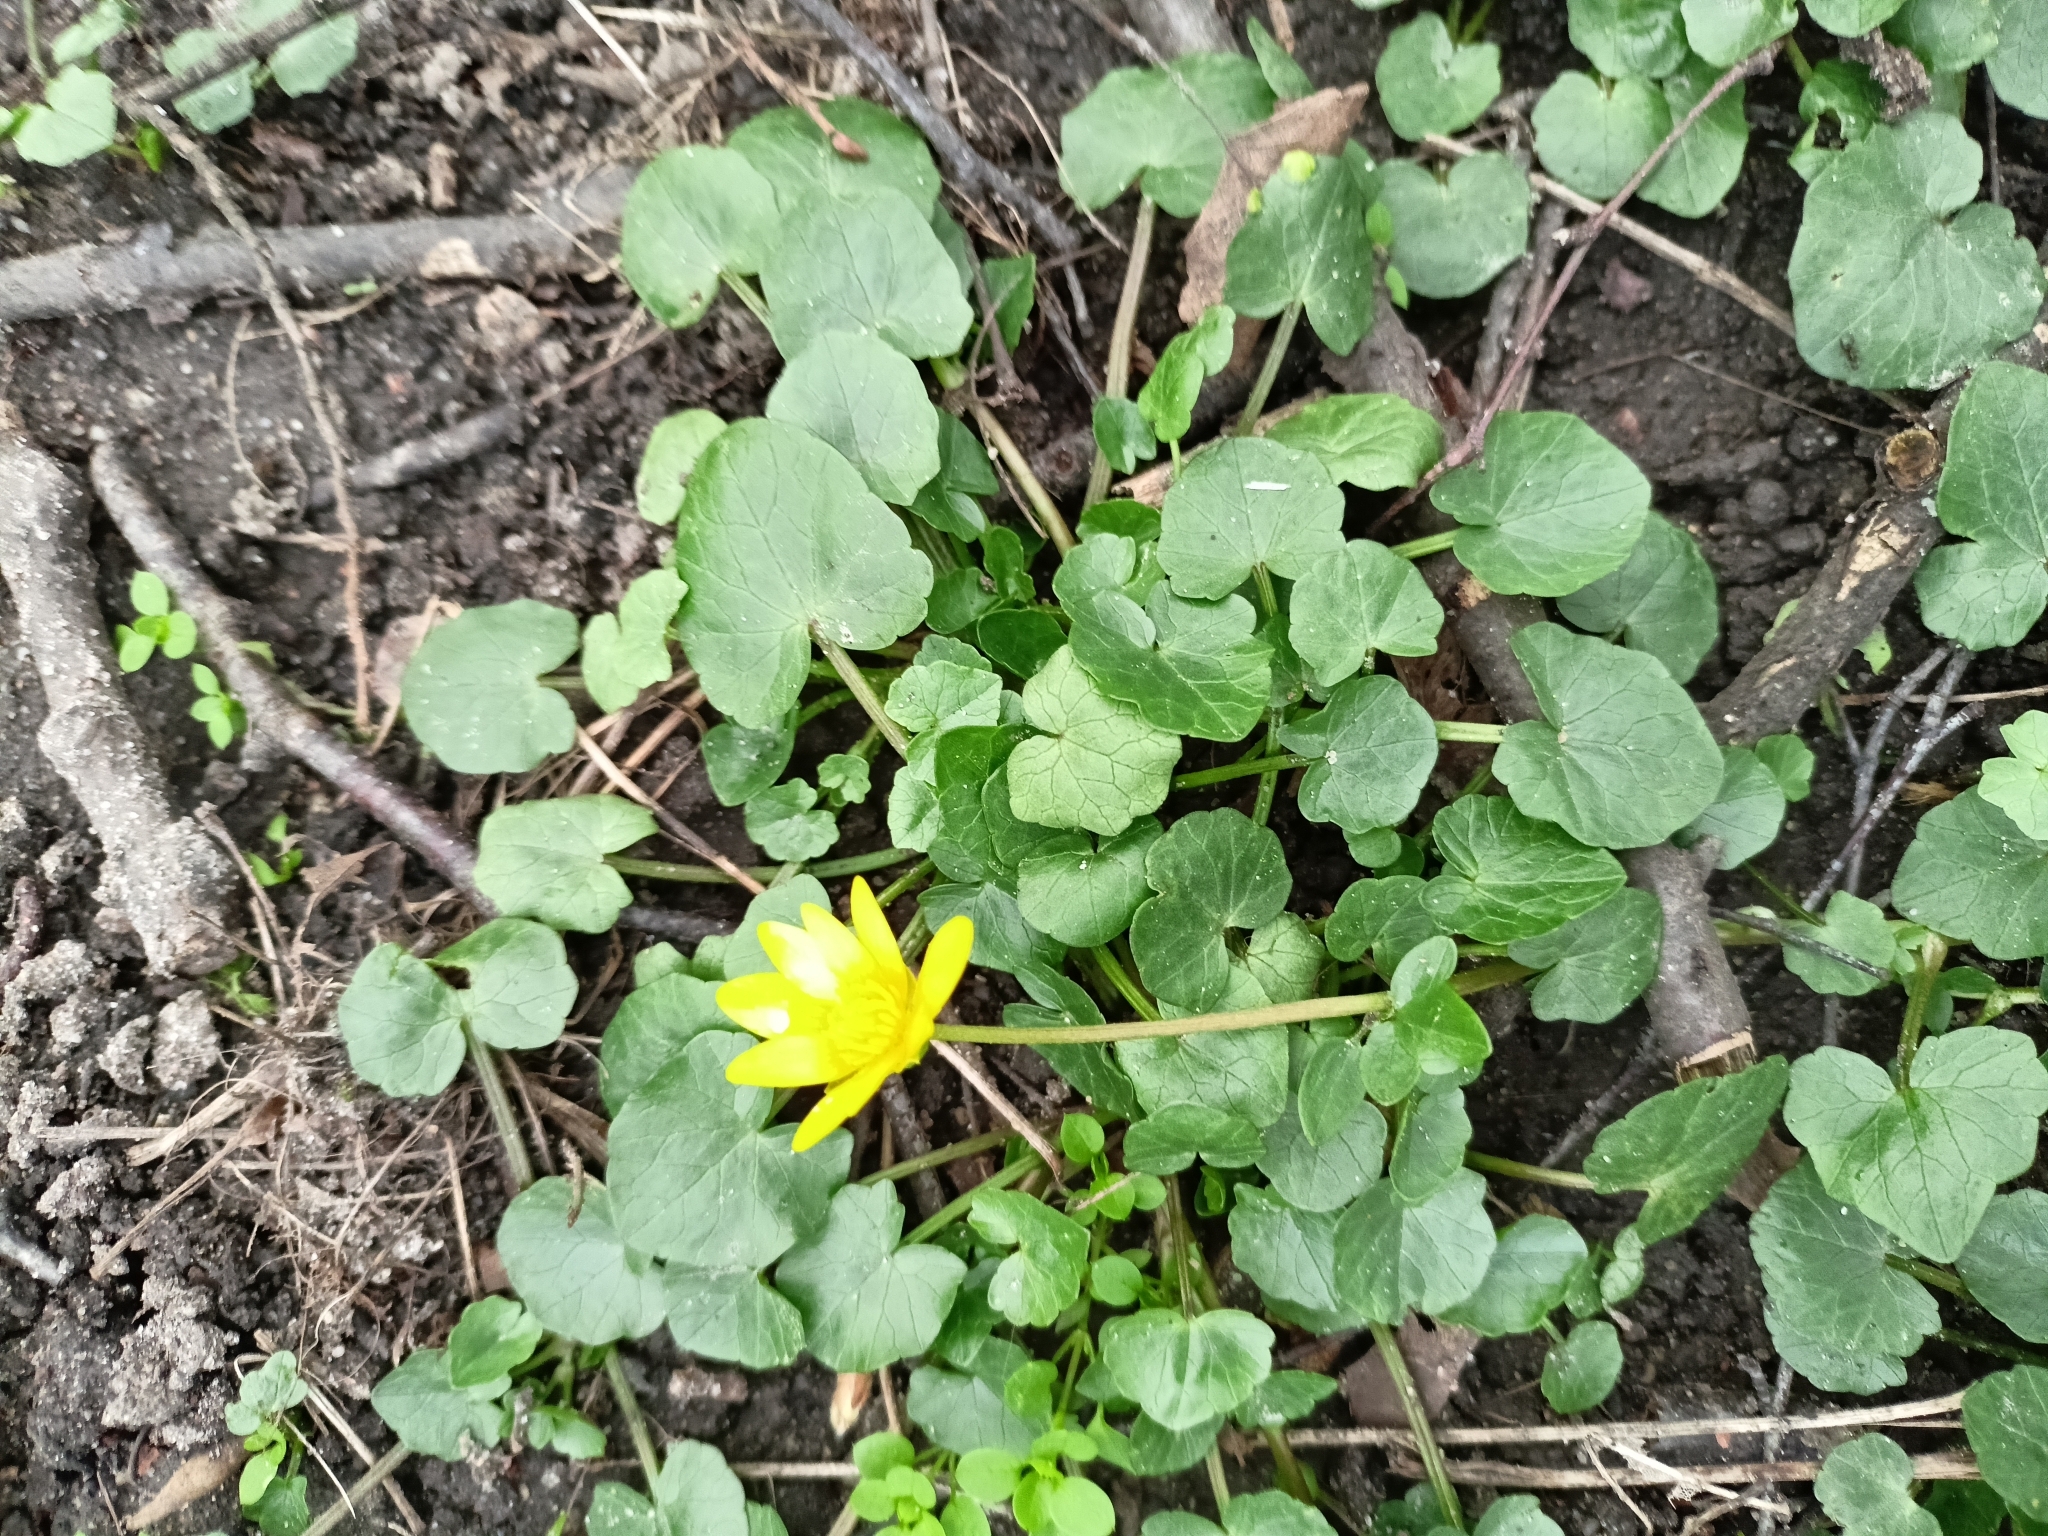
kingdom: Plantae
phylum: Tracheophyta
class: Magnoliopsida
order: Ranunculales
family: Ranunculaceae
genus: Ficaria
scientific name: Ficaria verna
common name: Lesser celandine
